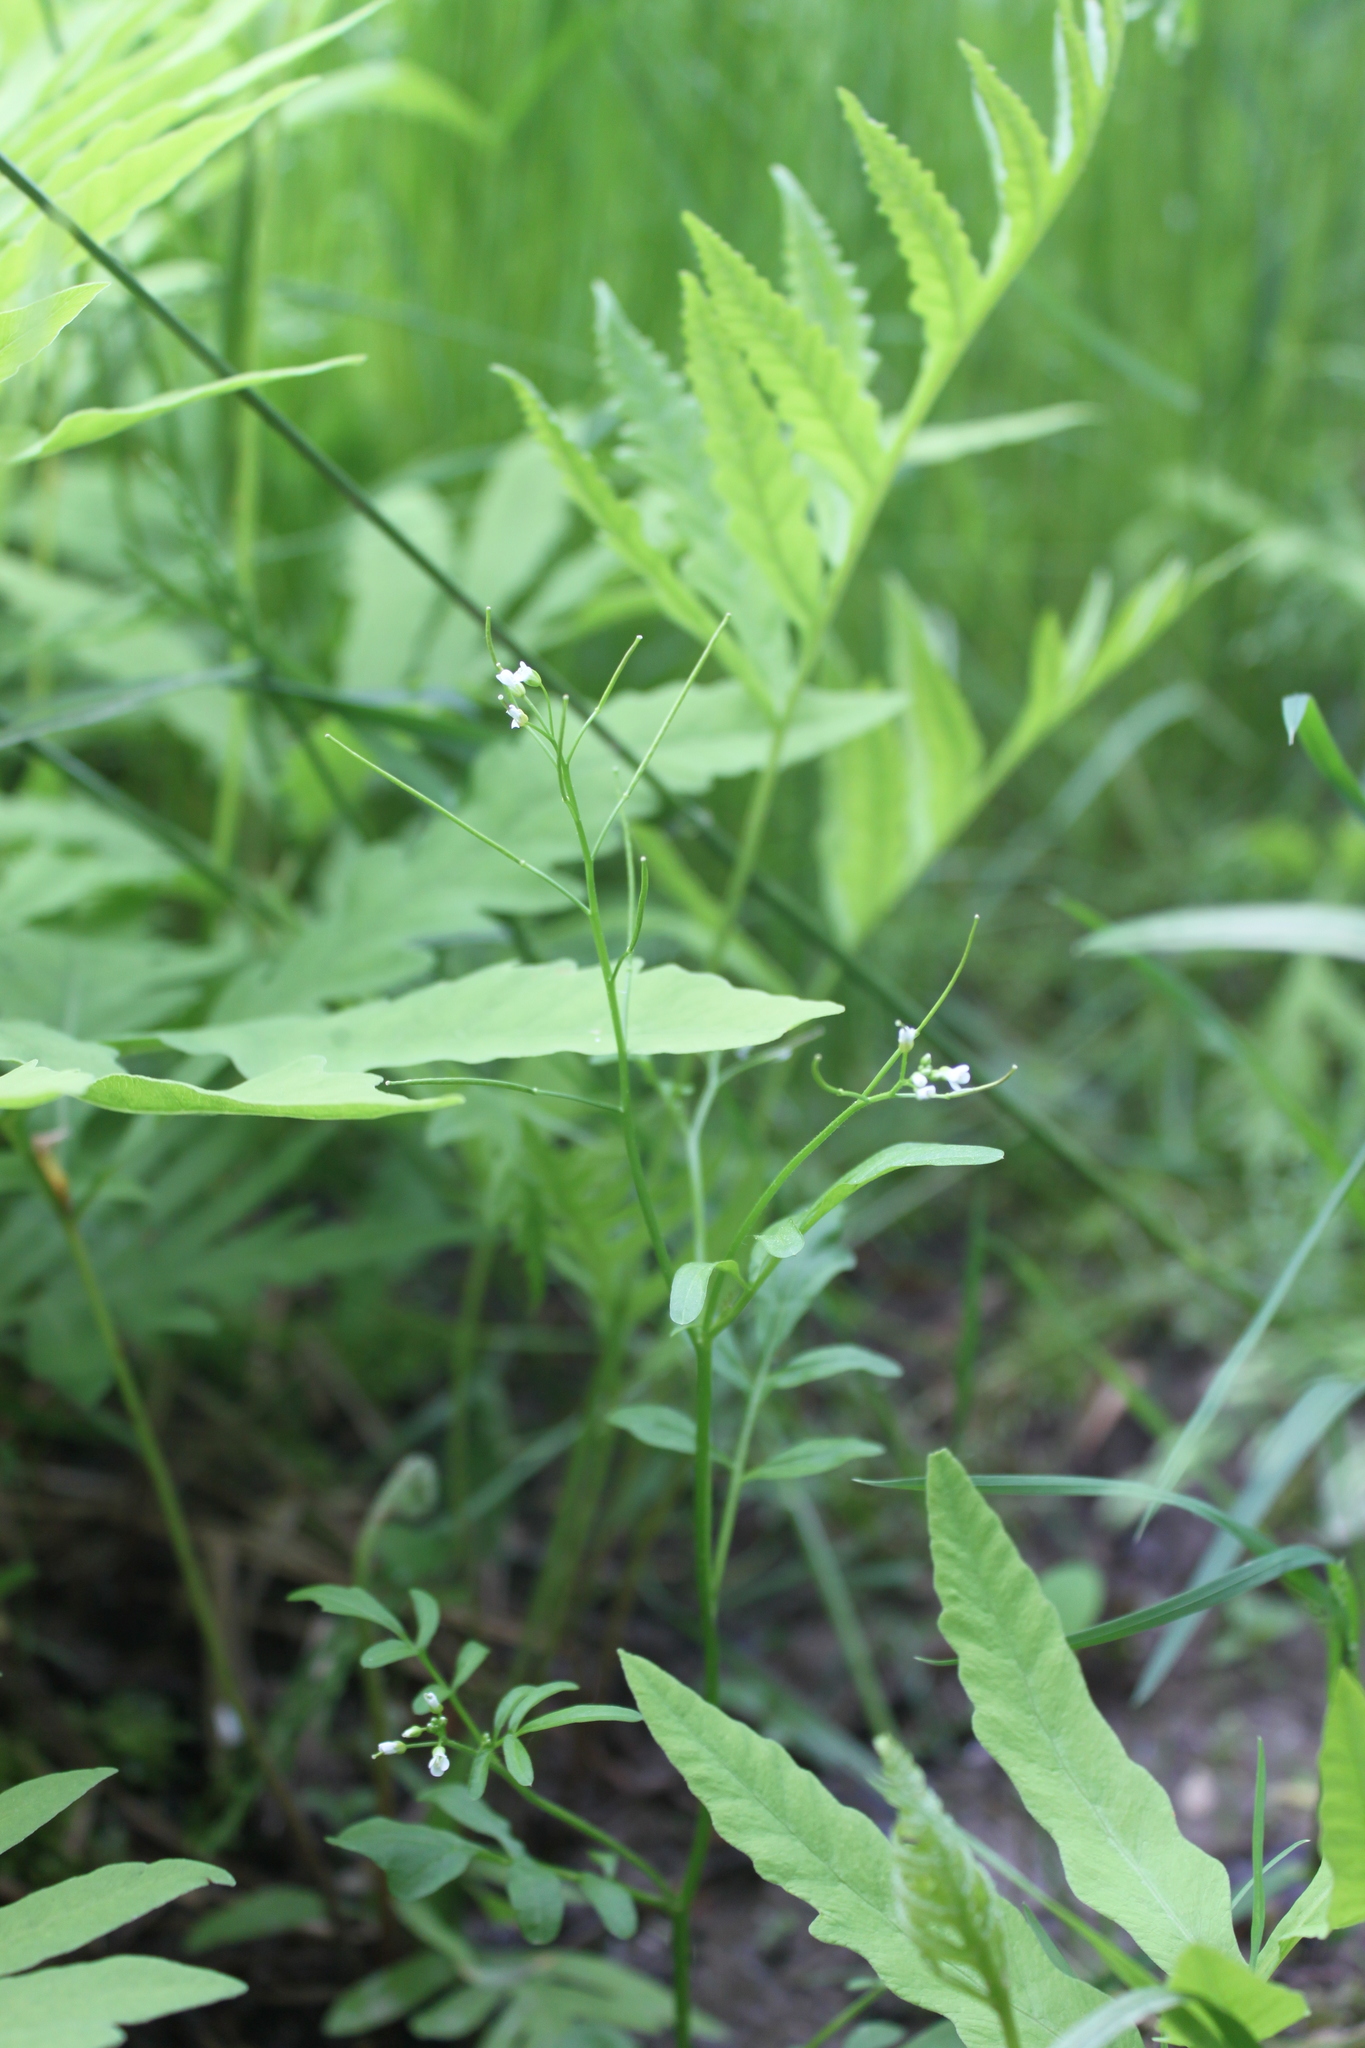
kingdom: Plantae
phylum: Tracheophyta
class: Magnoliopsida
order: Brassicales
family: Brassicaceae
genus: Cardamine
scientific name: Cardamine pensylvanica
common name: Pennsylvania bittercress
